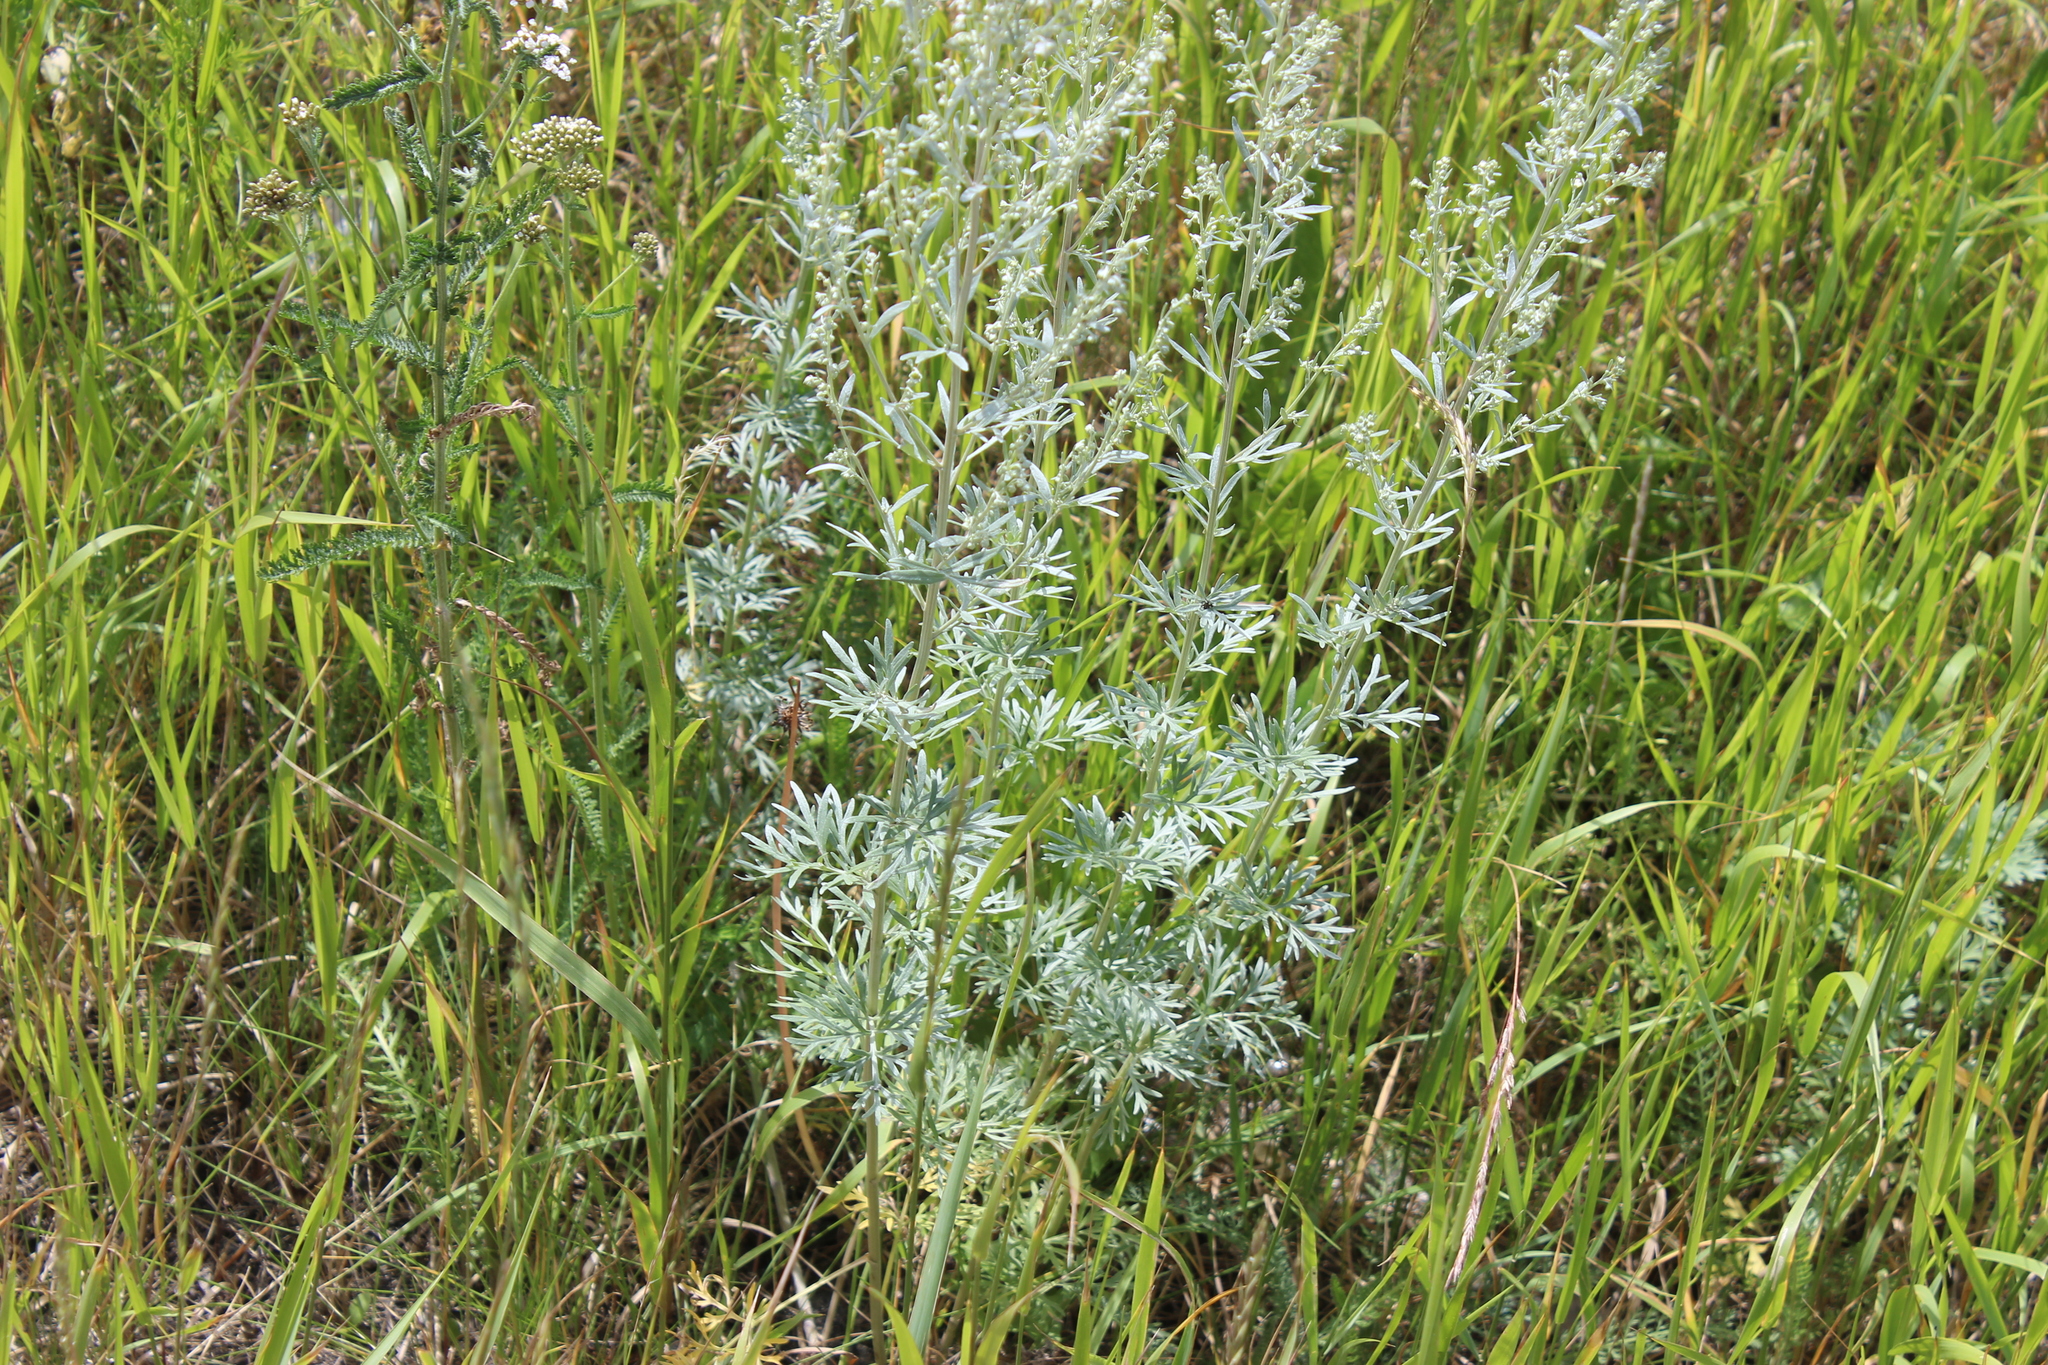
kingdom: Plantae
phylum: Tracheophyta
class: Magnoliopsida
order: Asterales
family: Asteraceae
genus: Artemisia
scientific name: Artemisia absinthium
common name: Wormwood
